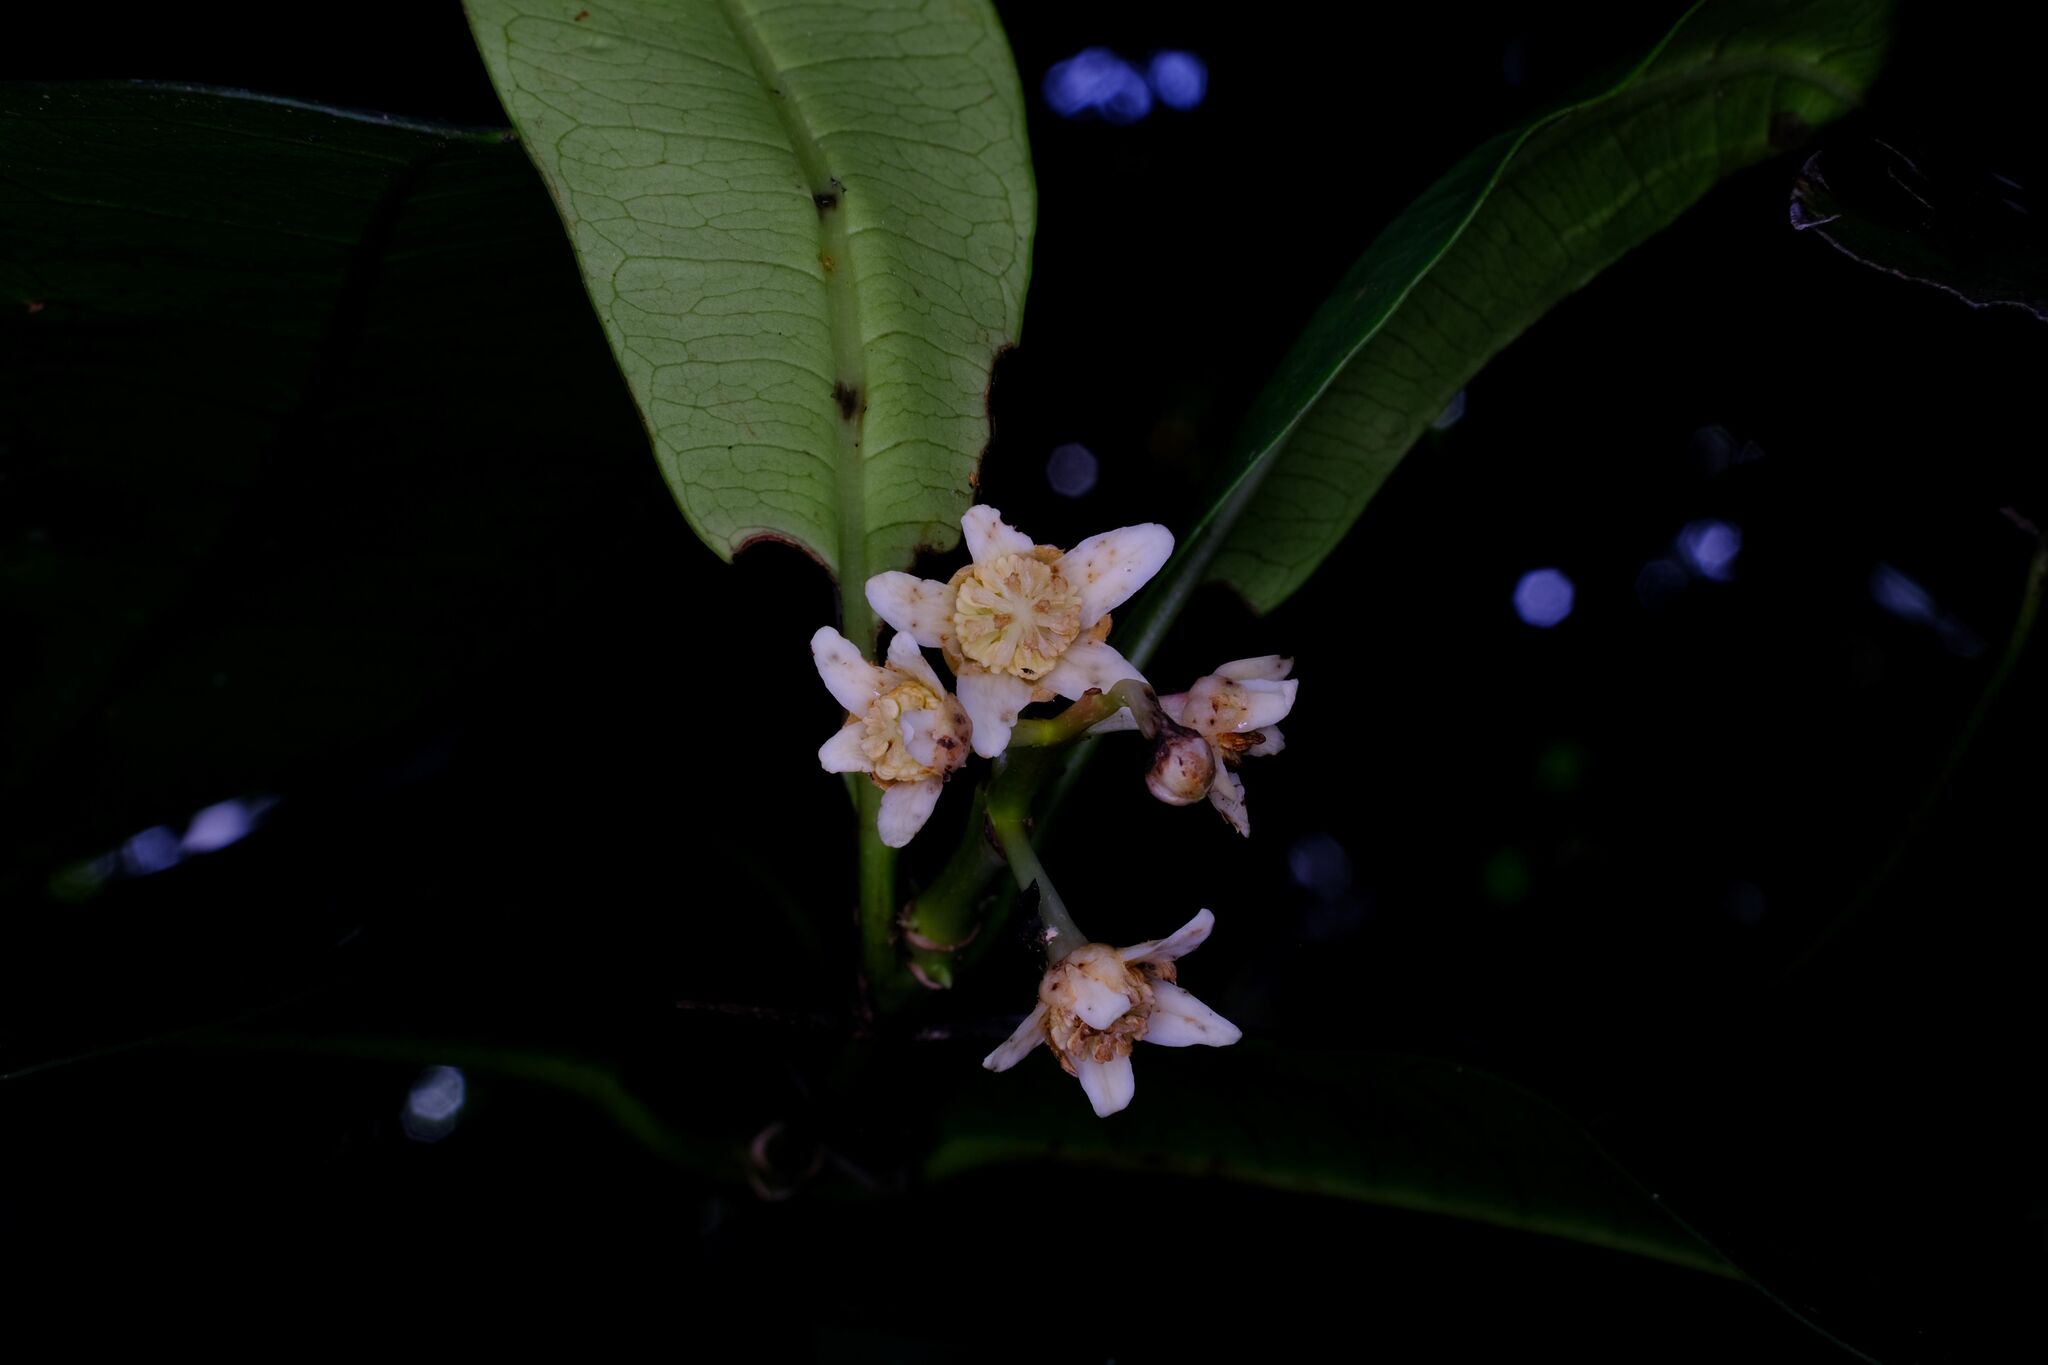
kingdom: Plantae
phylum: Tracheophyta
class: Magnoliopsida
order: Malpighiales
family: Euphorbiaceae
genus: Baloghia
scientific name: Baloghia inophylla
